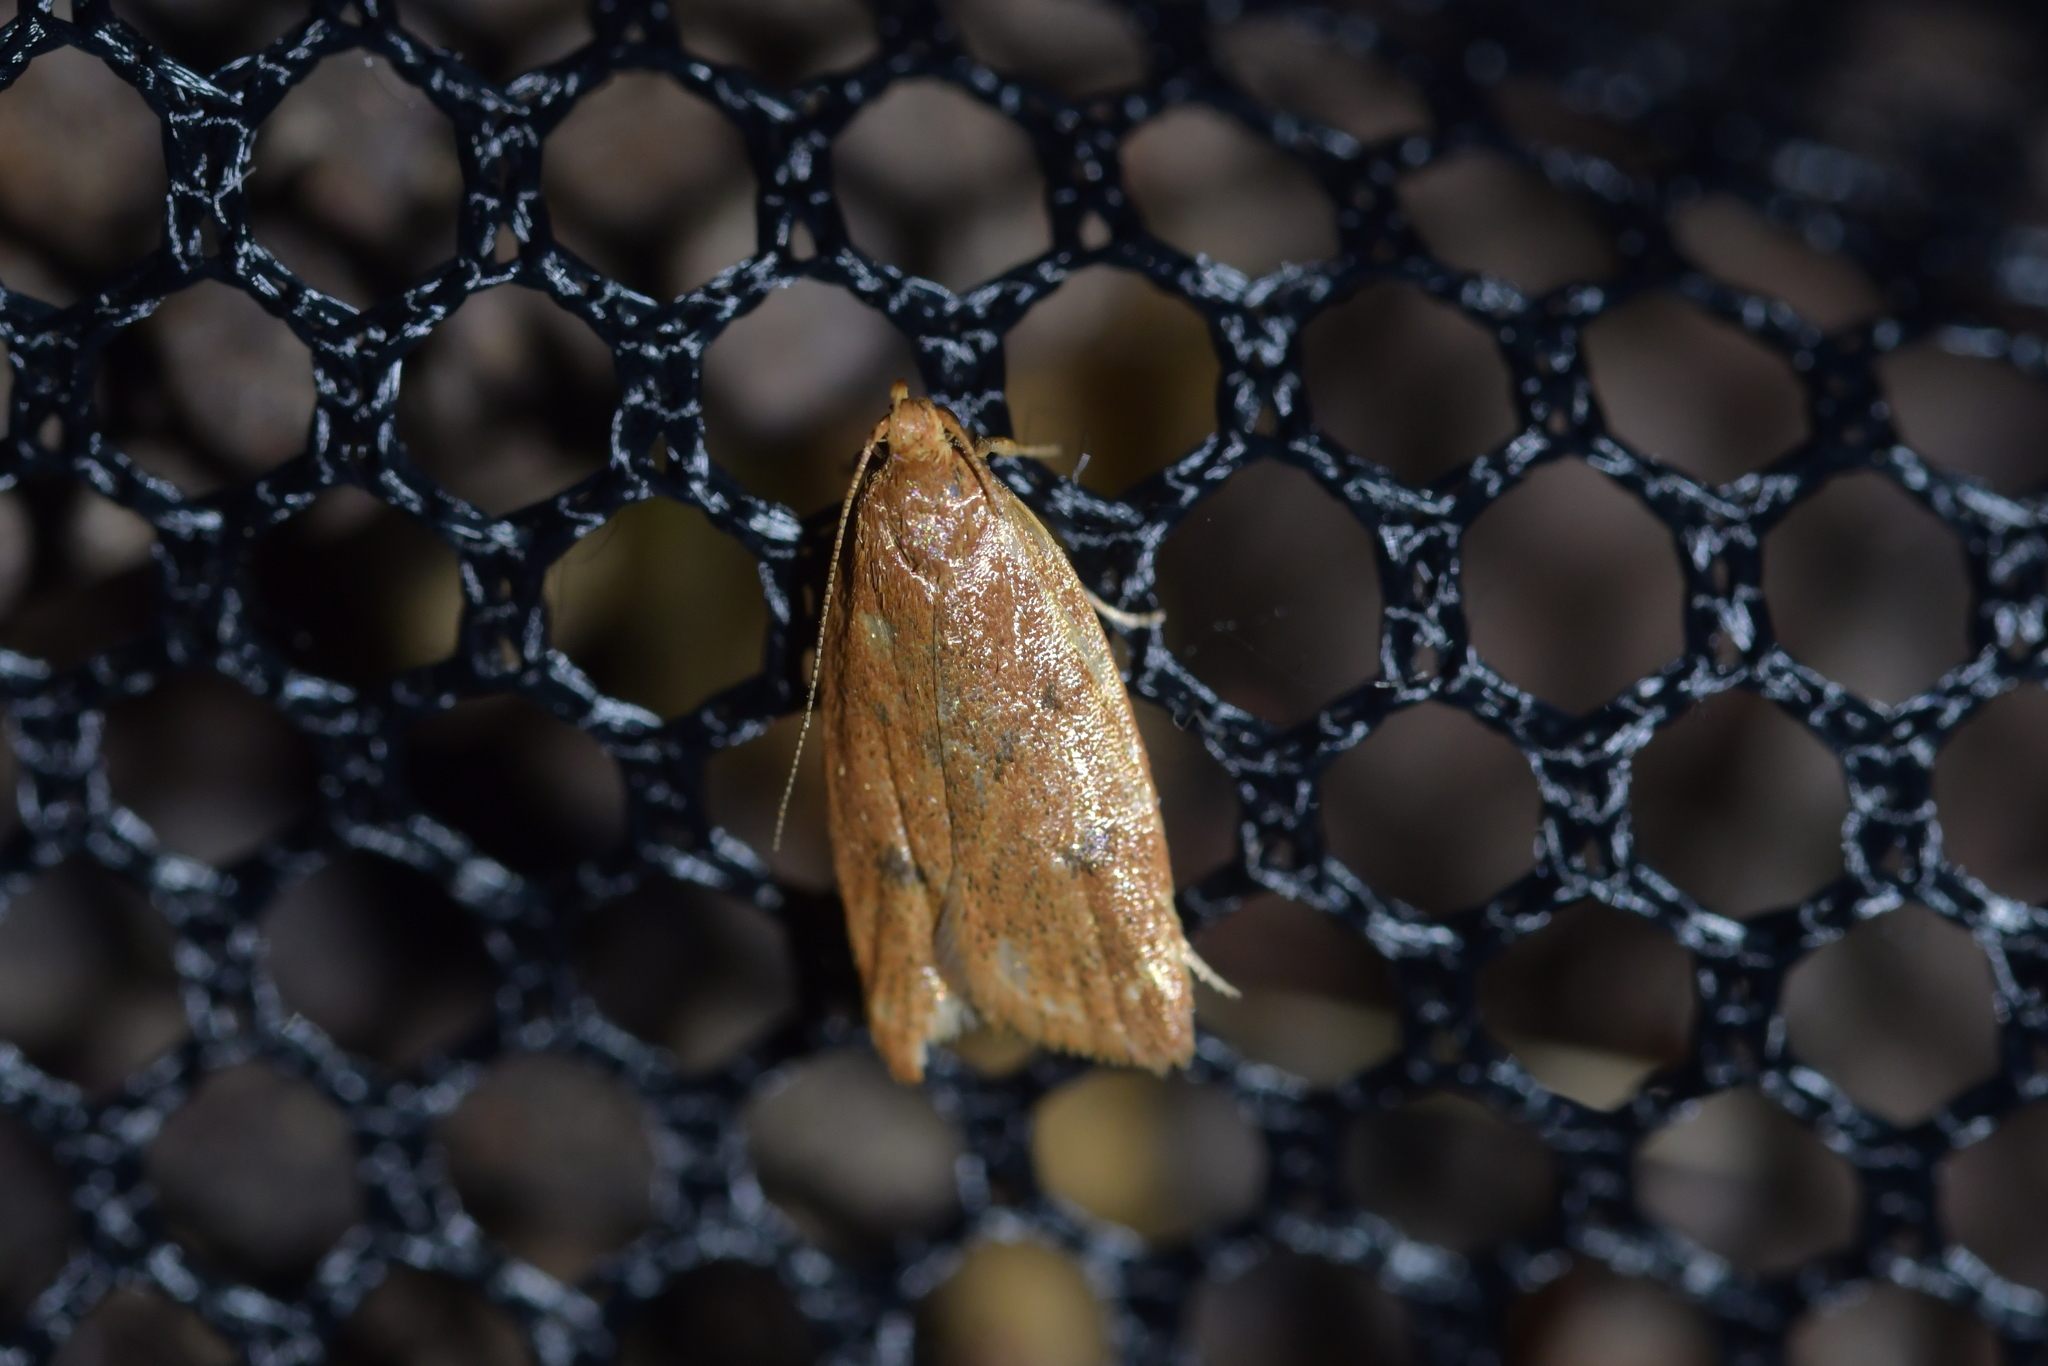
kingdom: Animalia
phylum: Arthropoda
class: Insecta
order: Lepidoptera
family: Oecophoridae
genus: Gymnobathra
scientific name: Gymnobathra sarcoxantha
